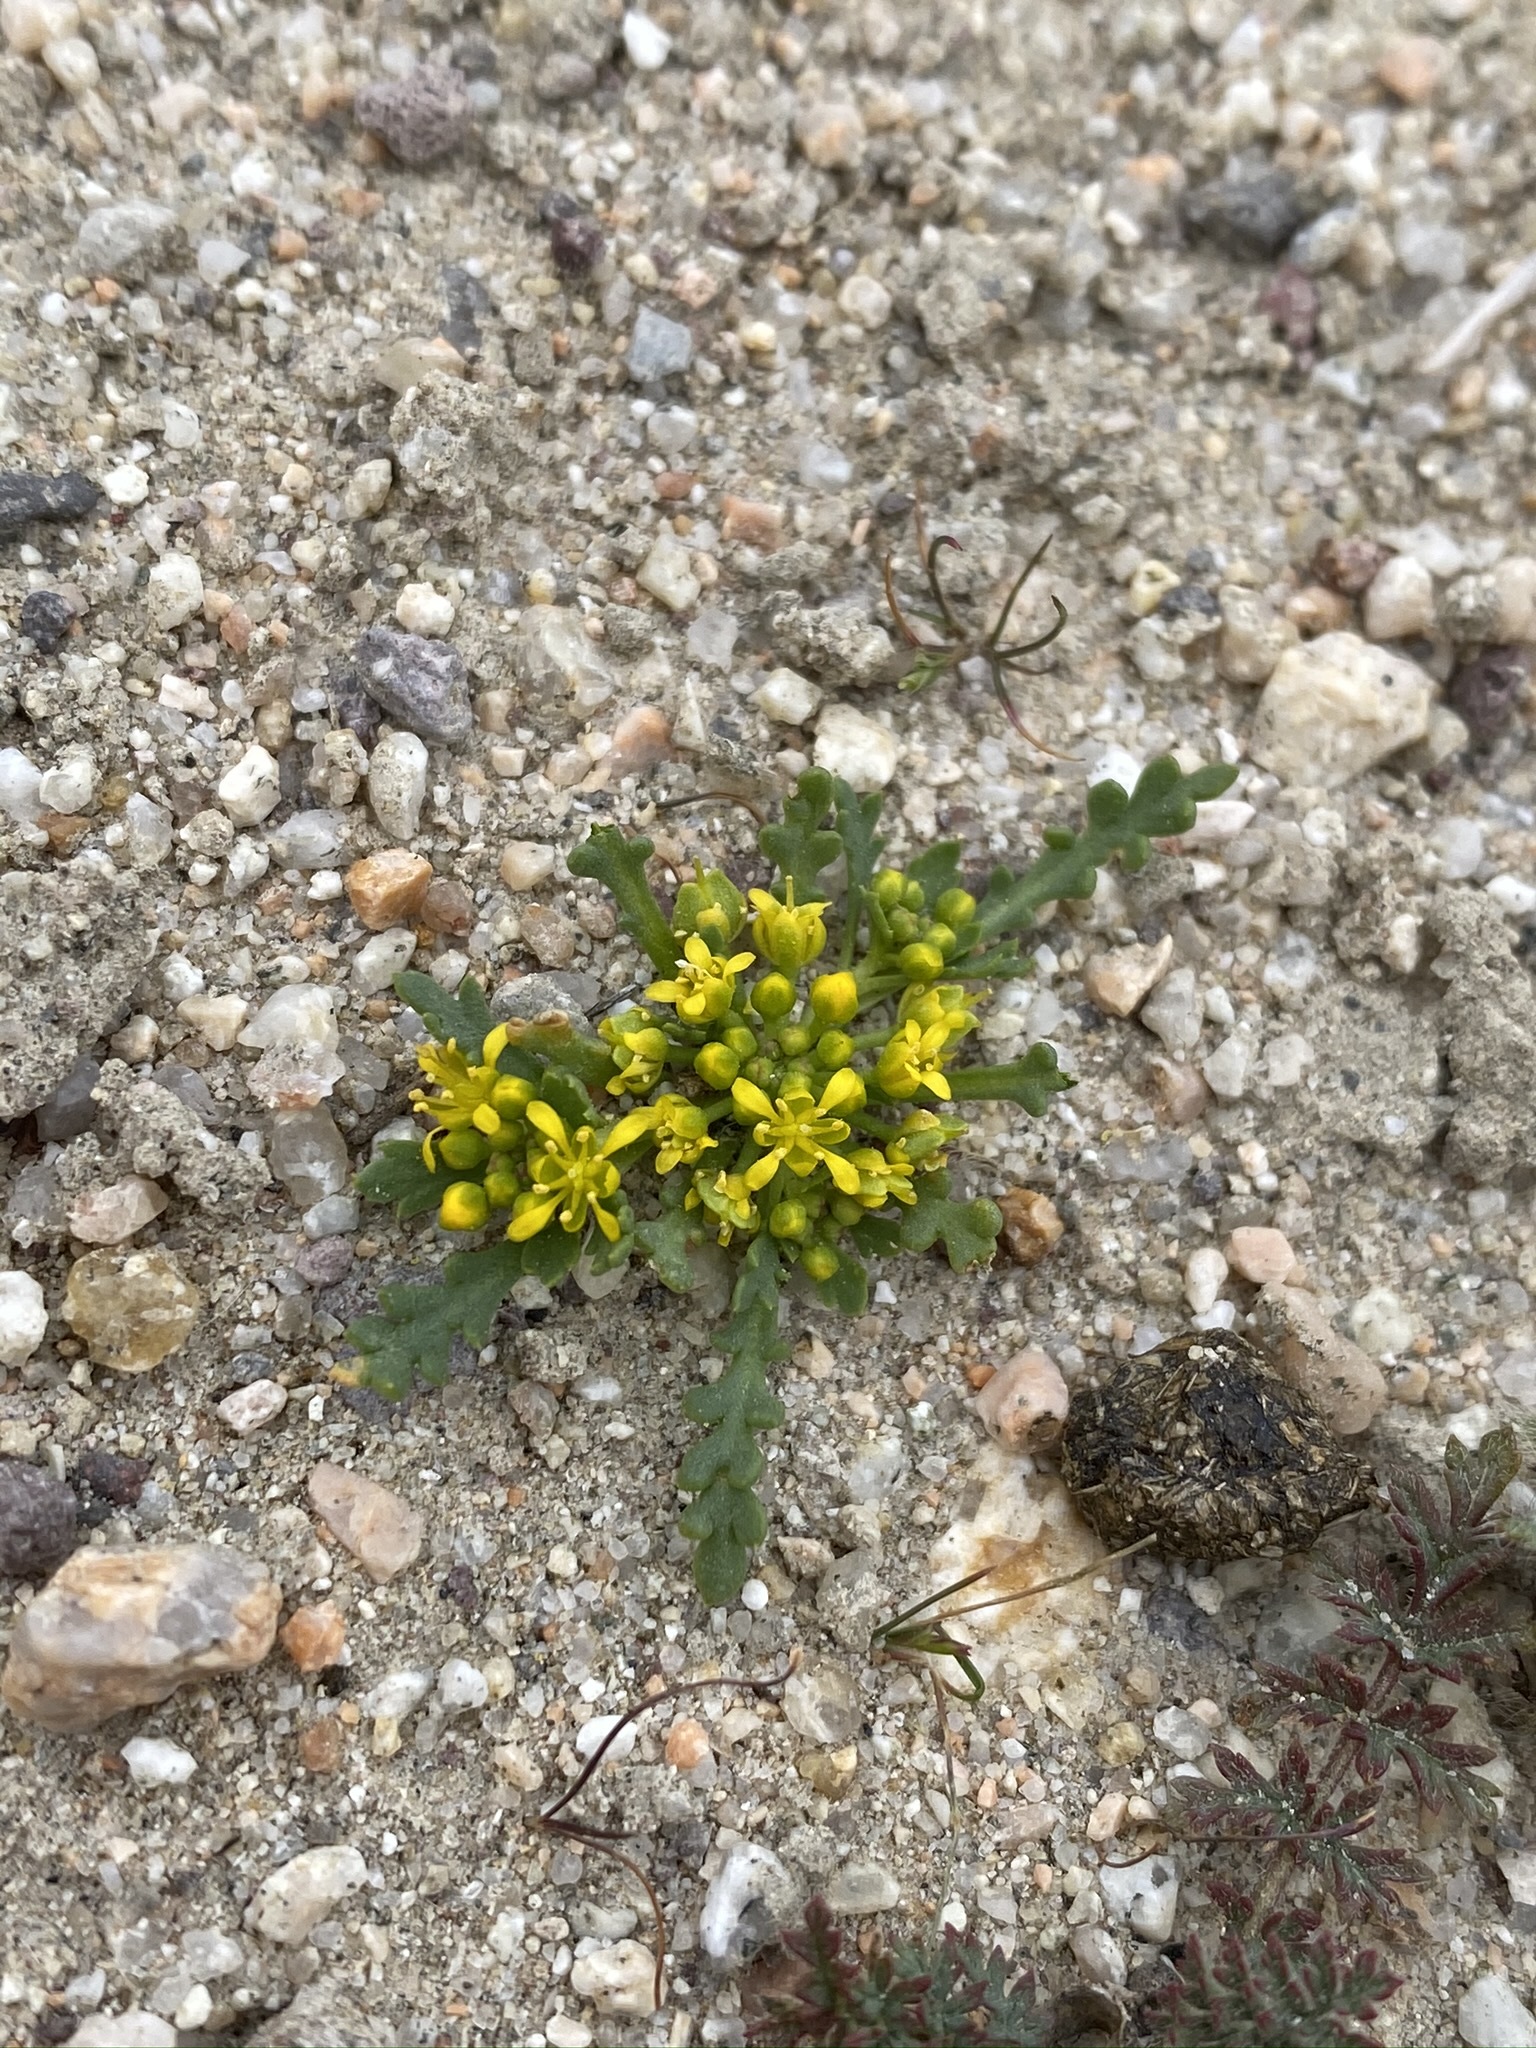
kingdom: Plantae
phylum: Tracheophyta
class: Magnoliopsida
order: Brassicales
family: Brassicaceae
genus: Lepidium
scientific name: Lepidium flavum
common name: Yellow pepperwort
